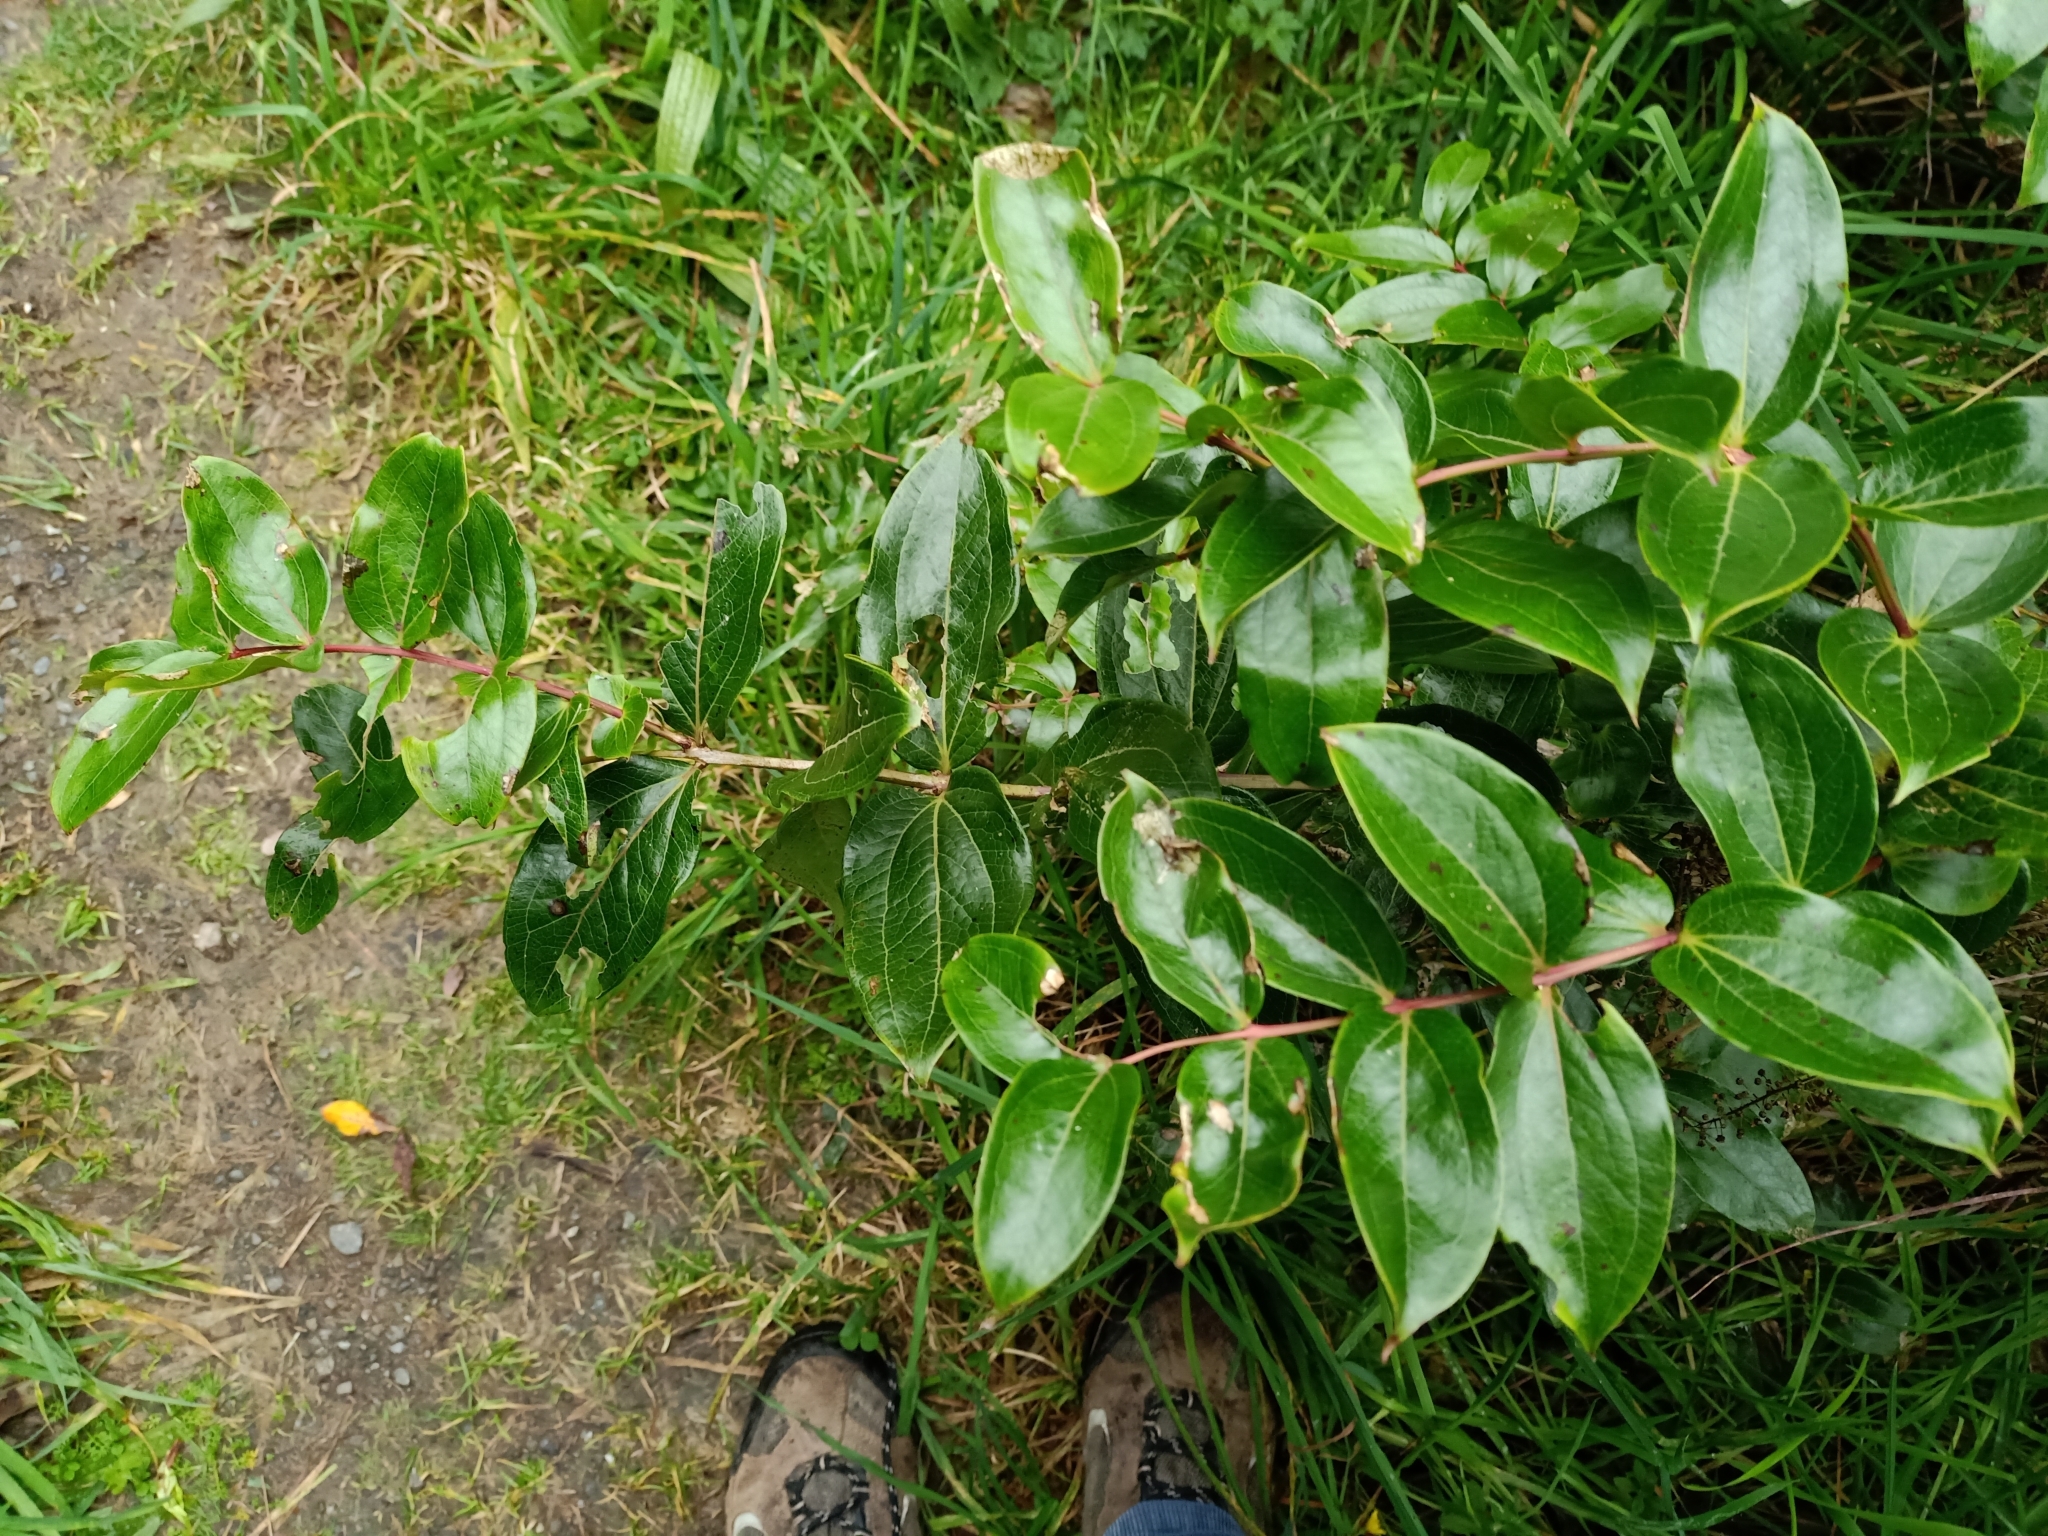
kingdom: Plantae
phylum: Tracheophyta
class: Magnoliopsida
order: Cucurbitales
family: Coriariaceae
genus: Coriaria
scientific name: Coriaria arborea
